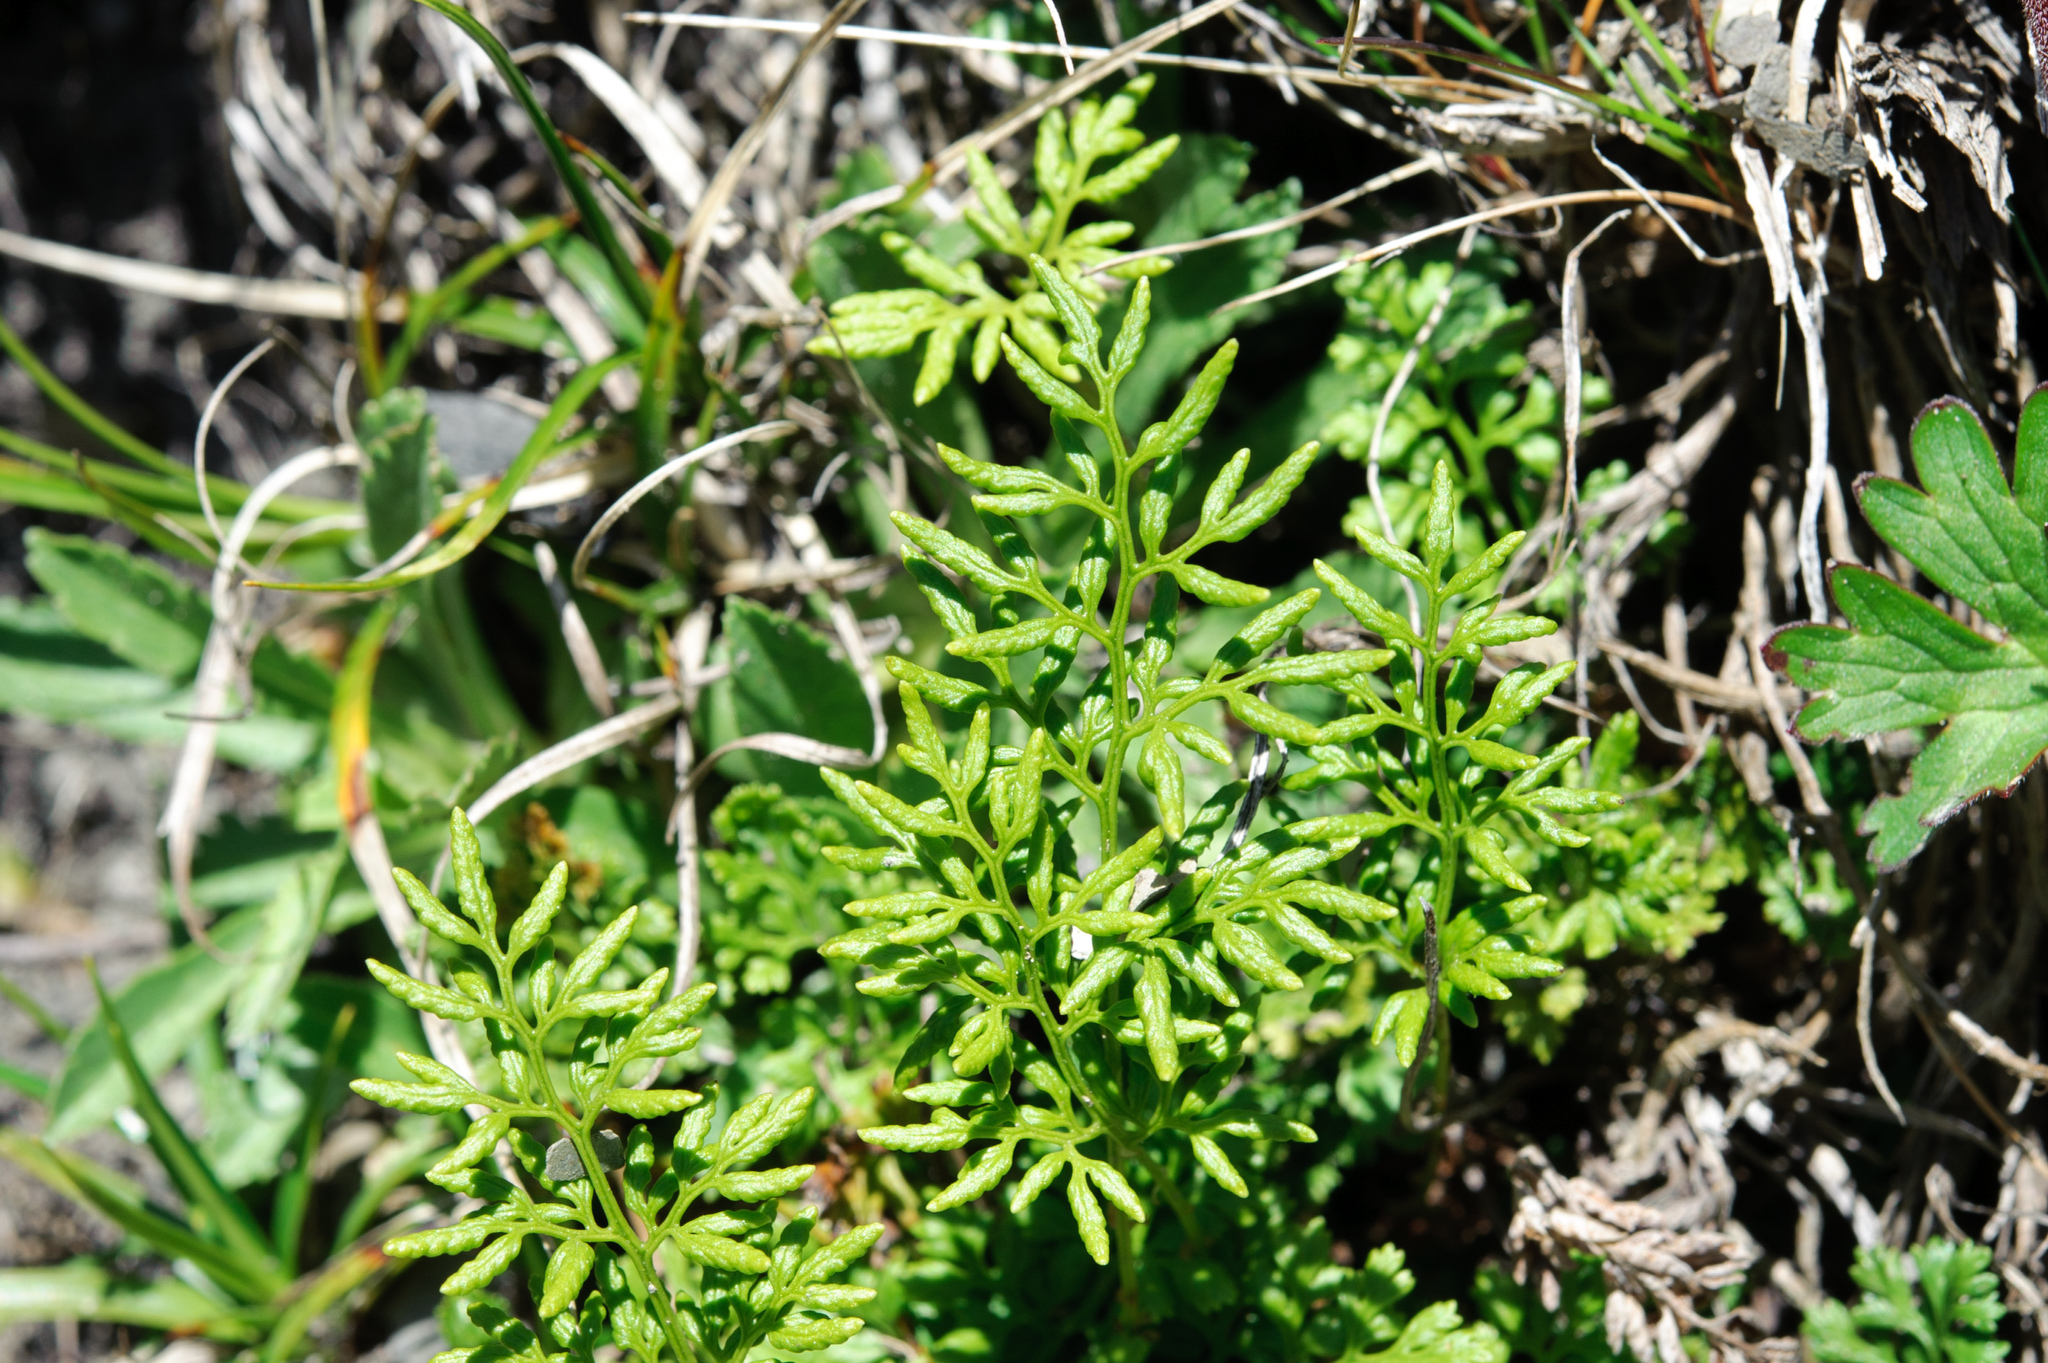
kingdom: Plantae
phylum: Tracheophyta
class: Polypodiopsida
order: Polypodiales
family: Pteridaceae
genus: Cryptogramma
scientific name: Cryptogramma brunoniana
